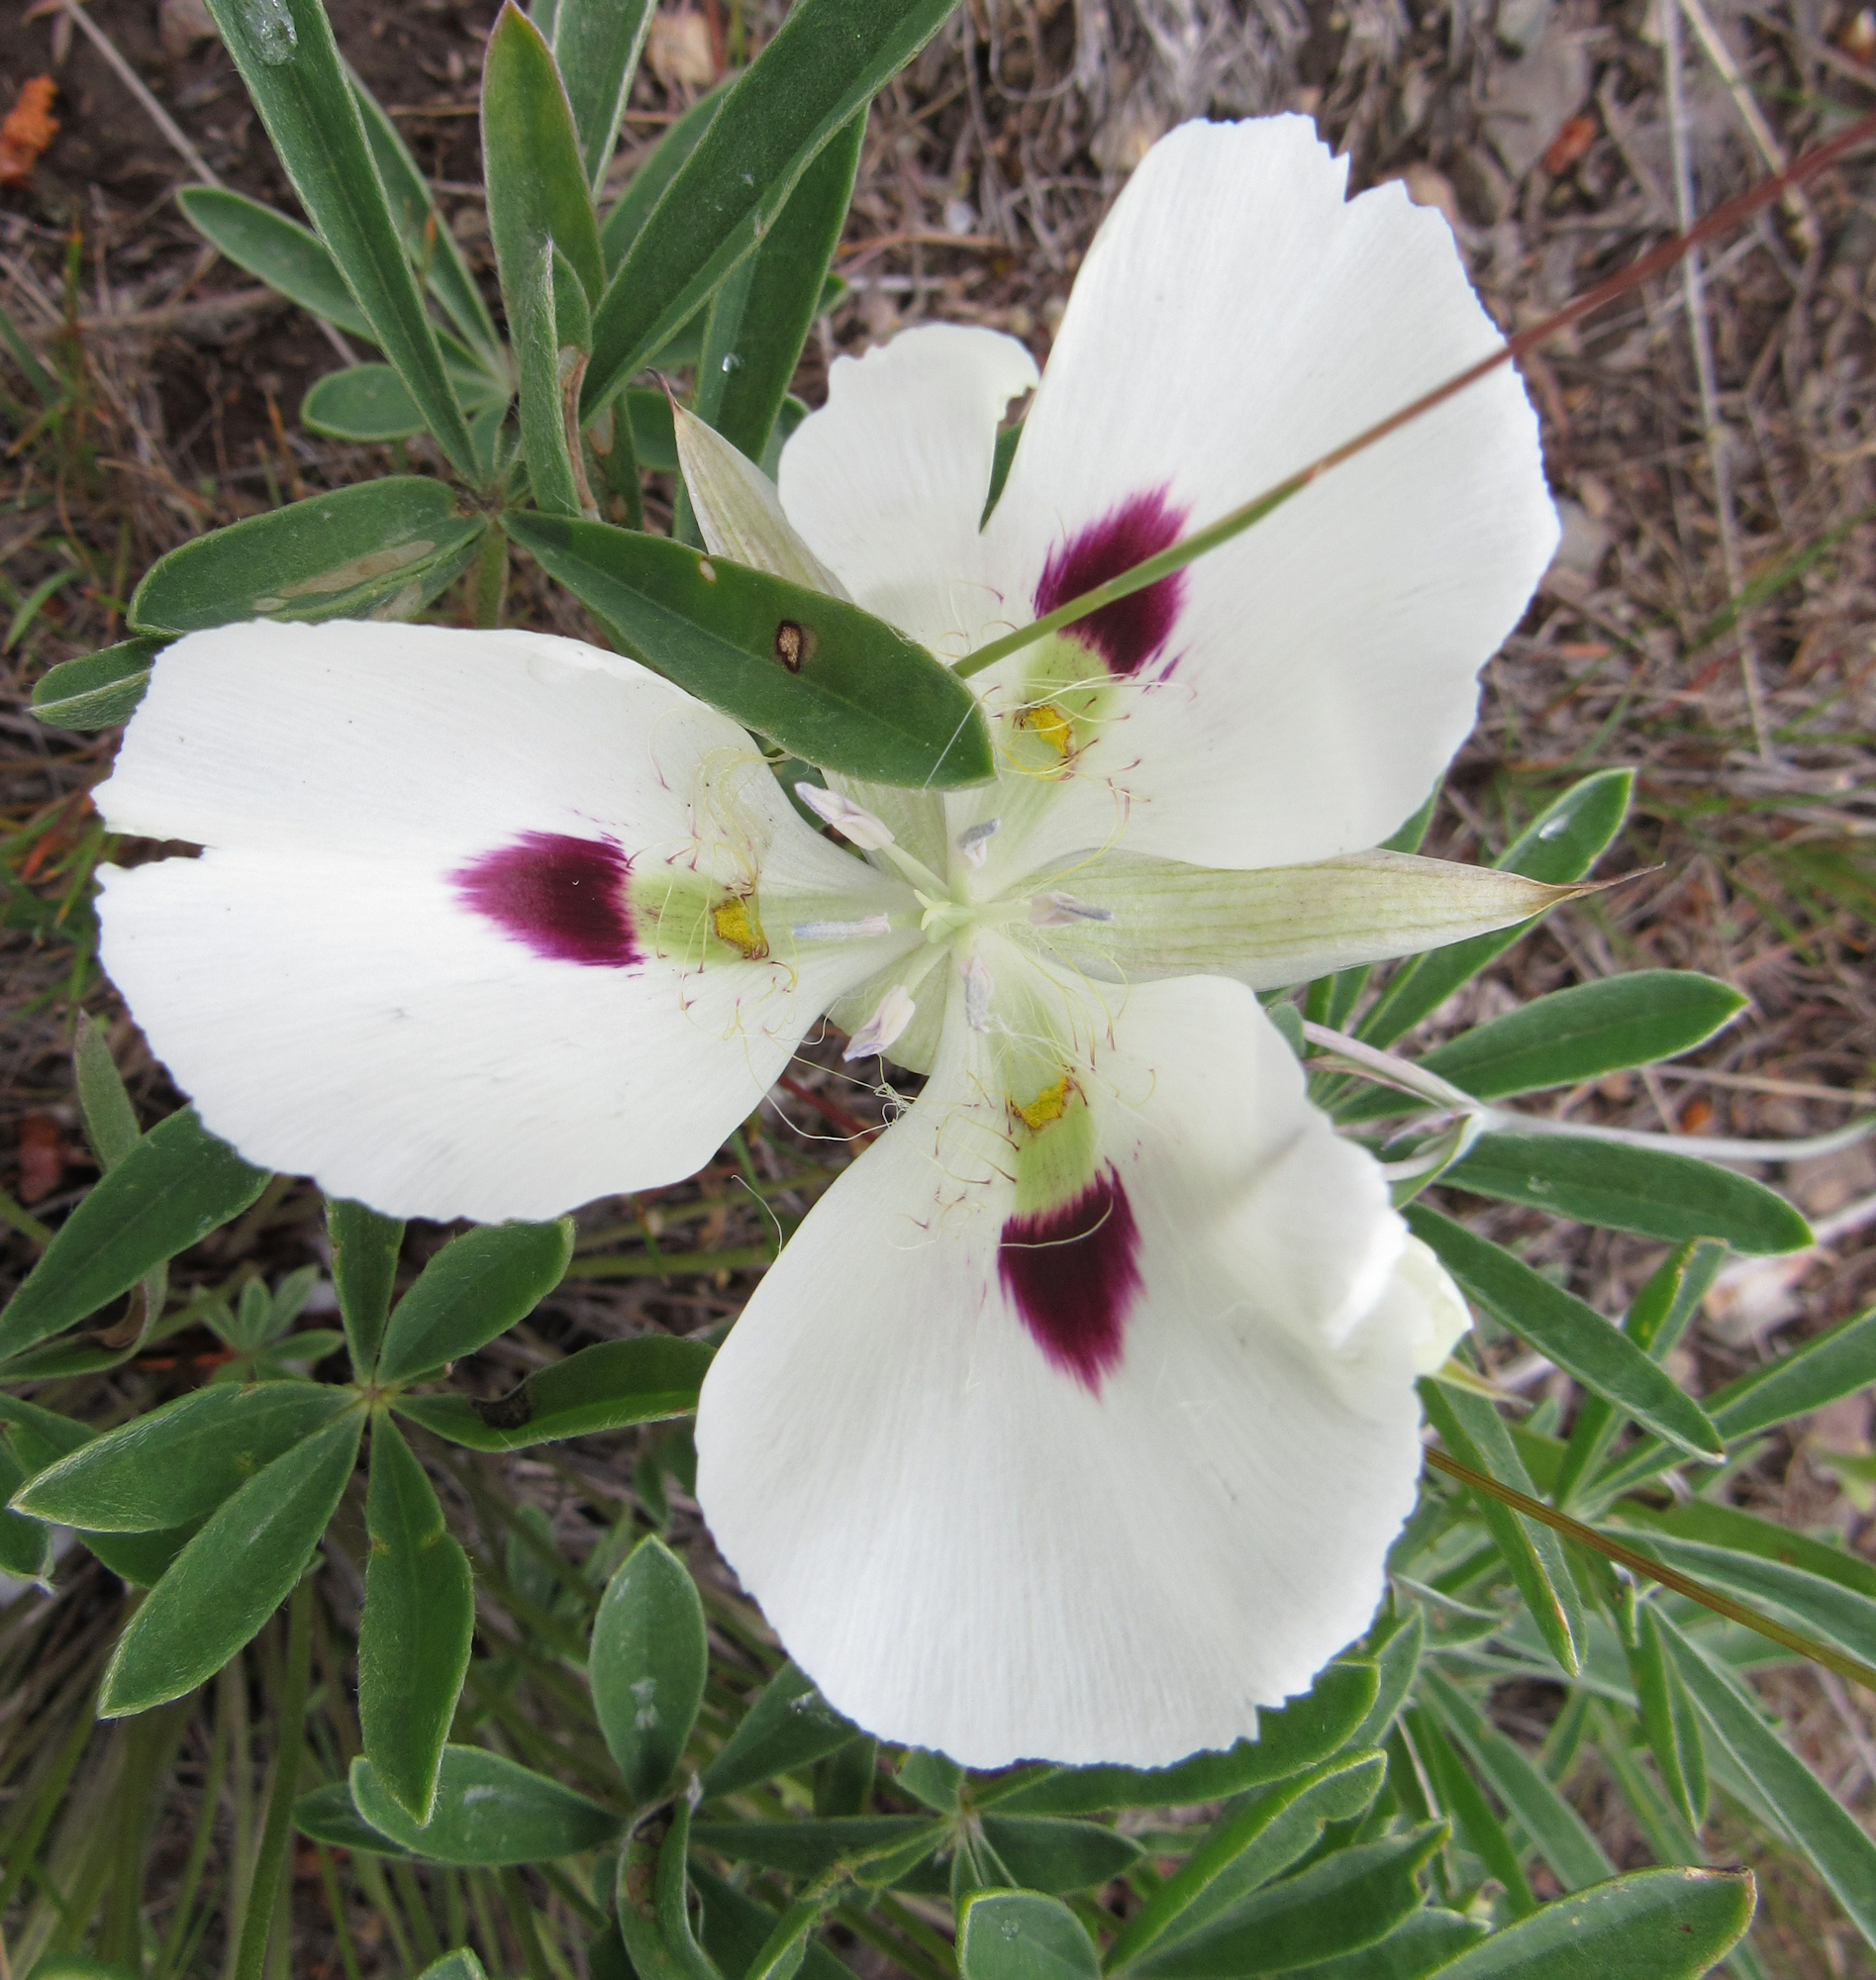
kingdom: Plantae
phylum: Tracheophyta
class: Liliopsida
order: Liliales
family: Liliaceae
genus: Calochortus
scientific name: Calochortus eurycarpus
